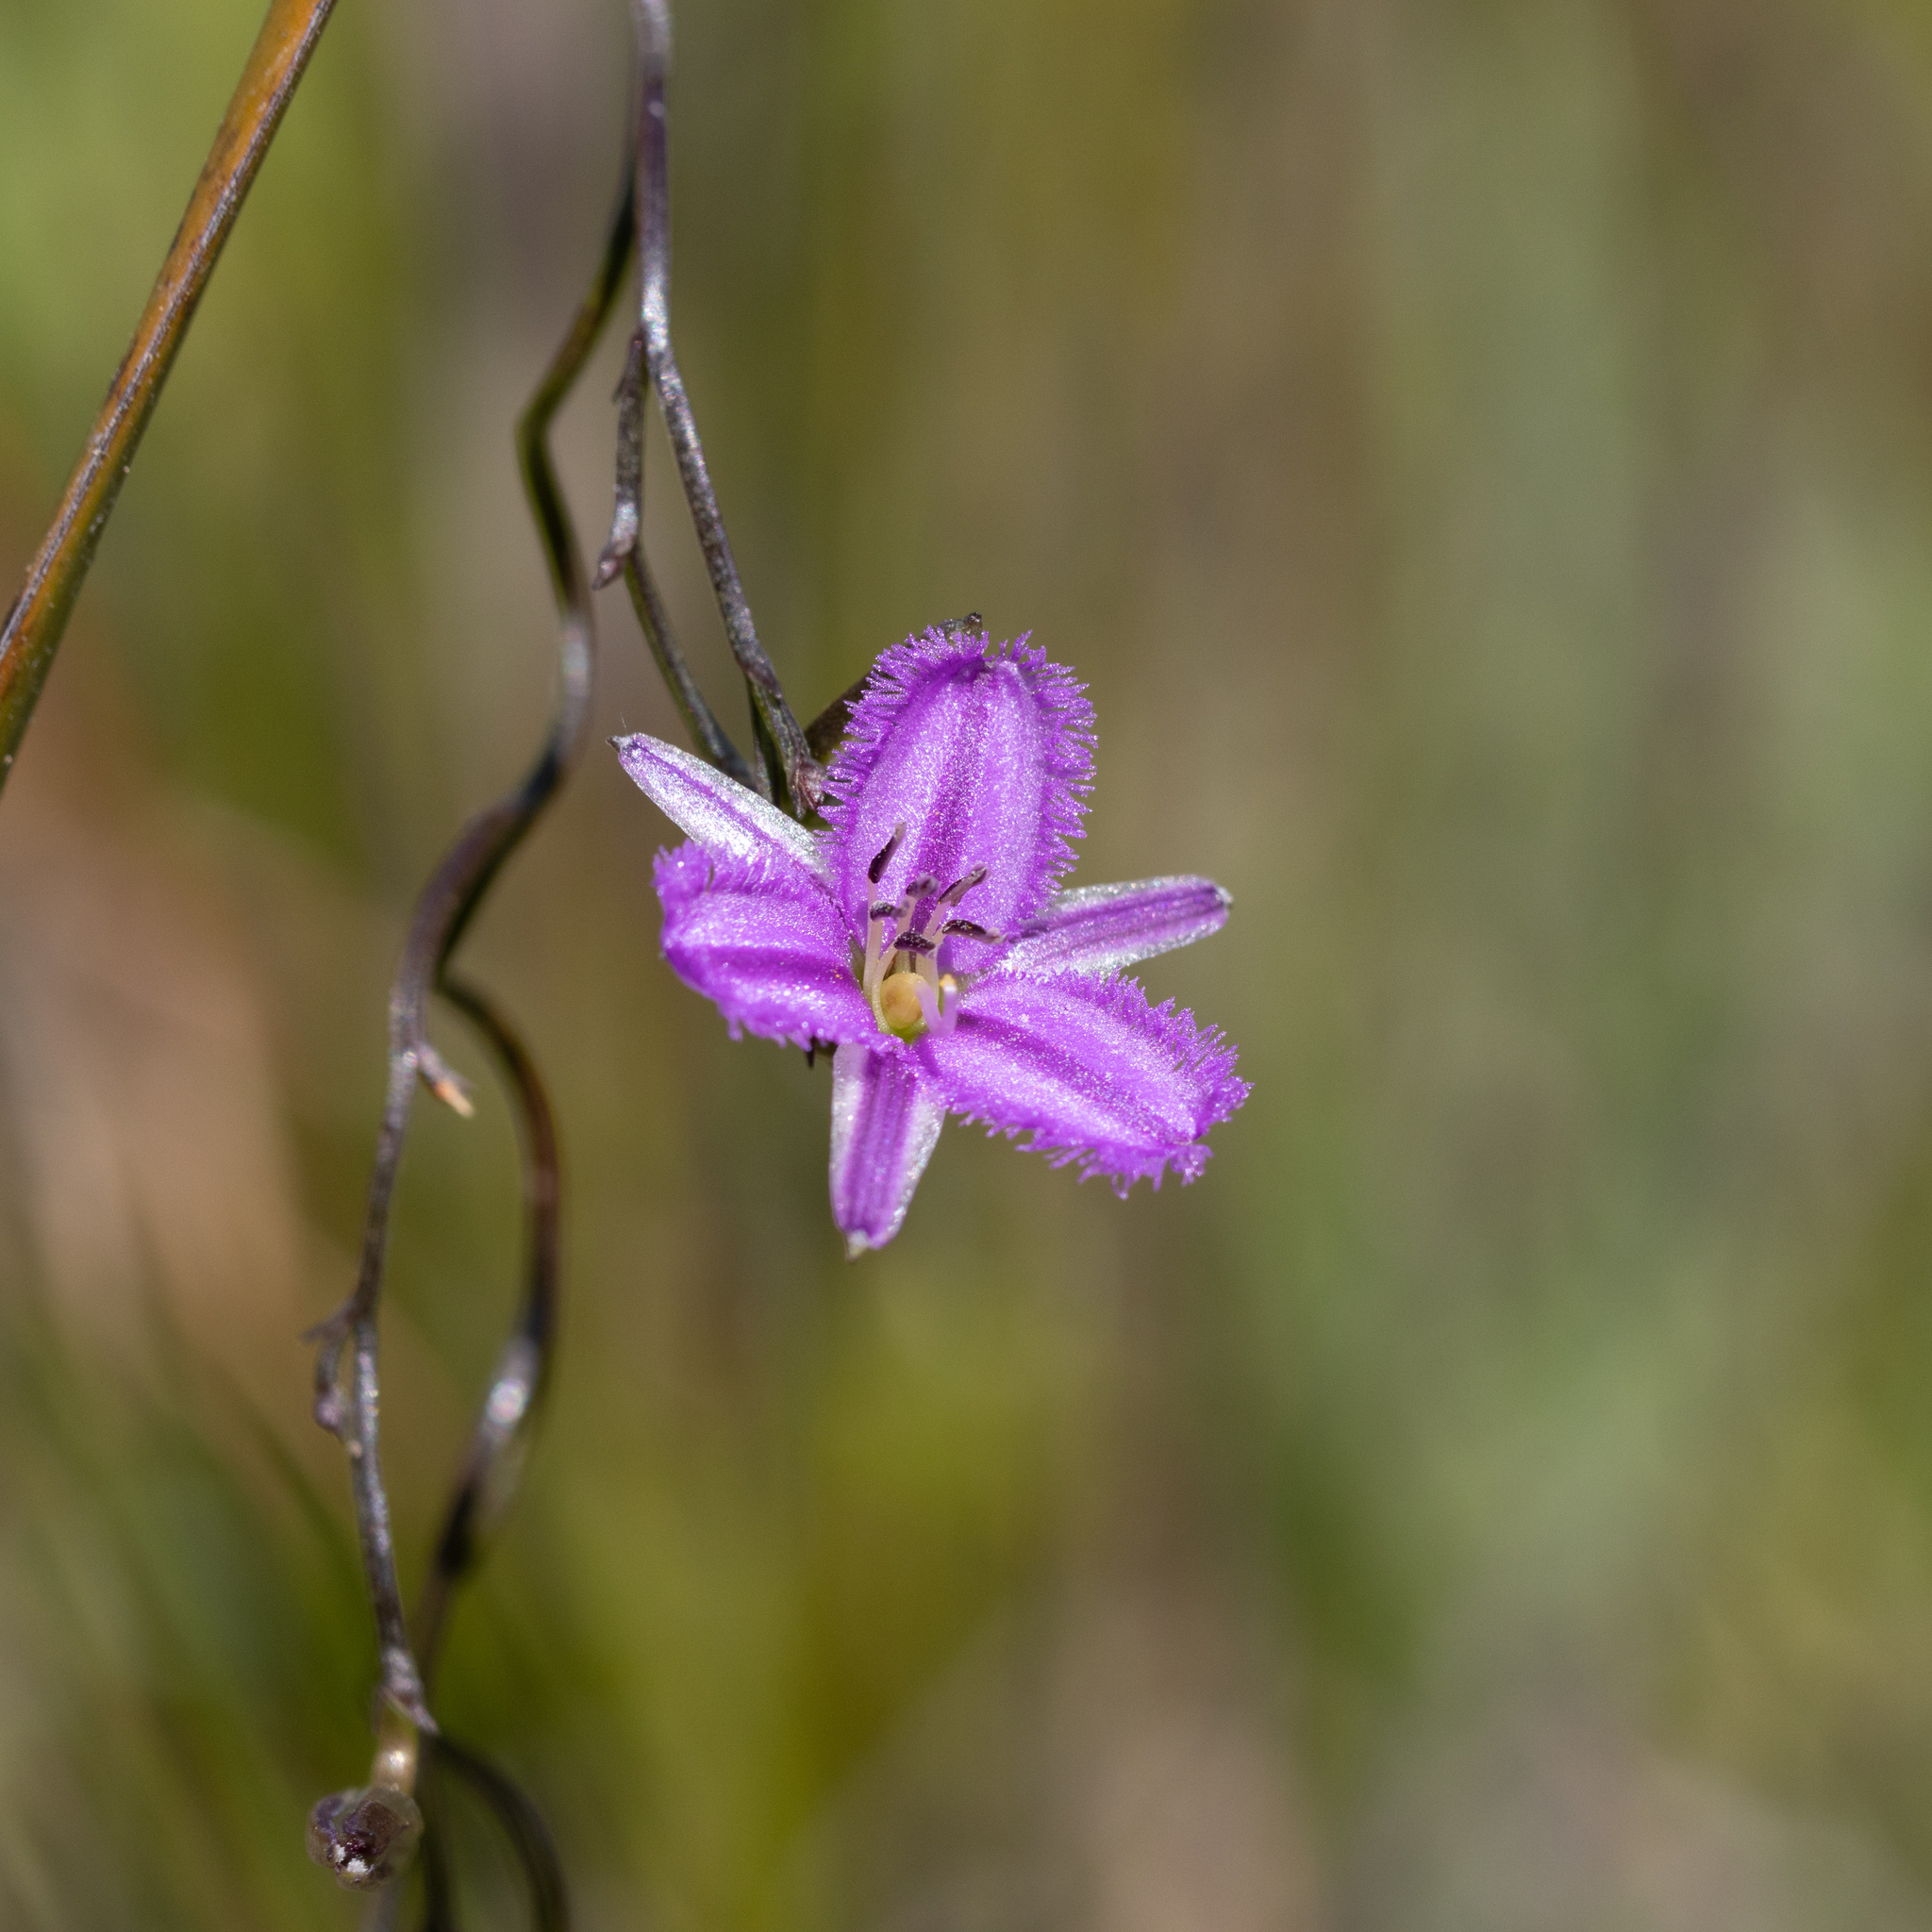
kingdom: Plantae
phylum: Tracheophyta
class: Liliopsida
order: Asparagales
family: Asparagaceae
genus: Thysanotus
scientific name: Thysanotus patersonii
